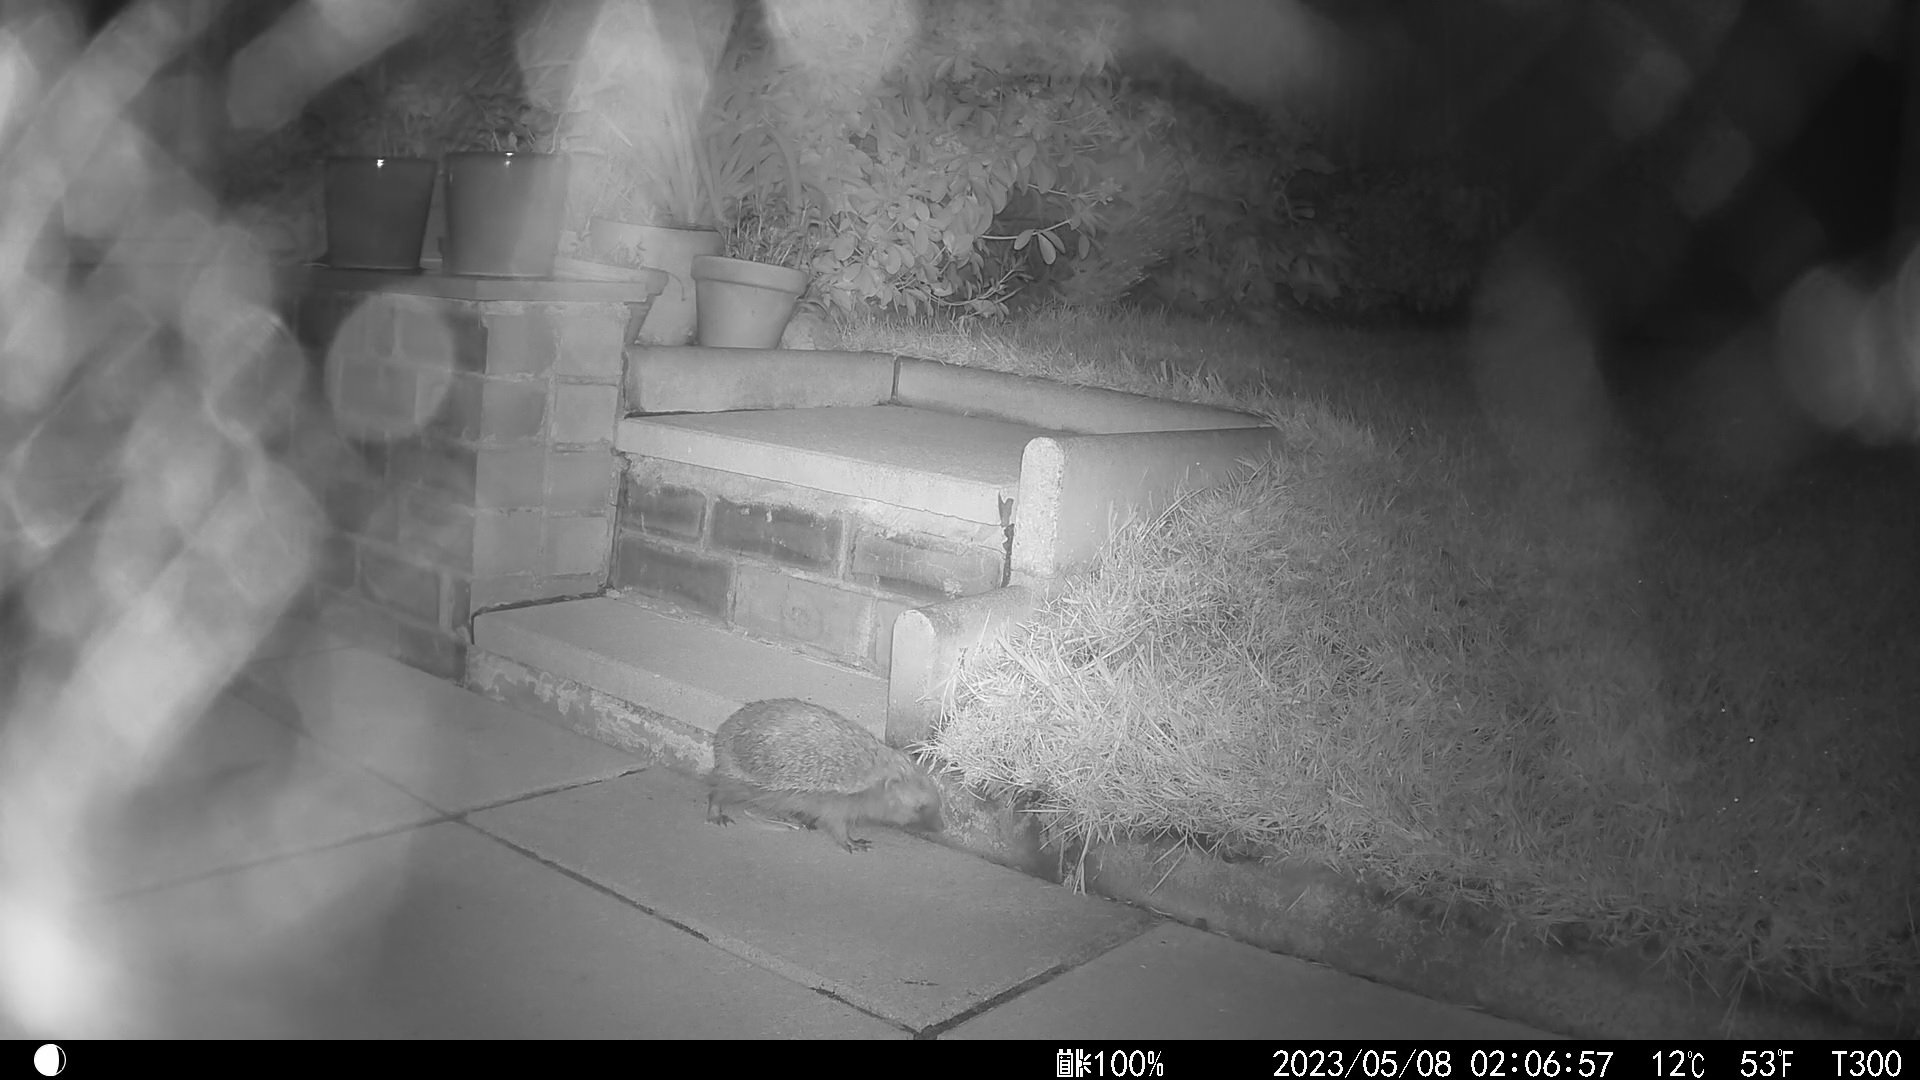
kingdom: Animalia
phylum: Chordata
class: Mammalia
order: Erinaceomorpha
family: Erinaceidae
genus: Erinaceus
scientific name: Erinaceus europaeus
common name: West european hedgehog
